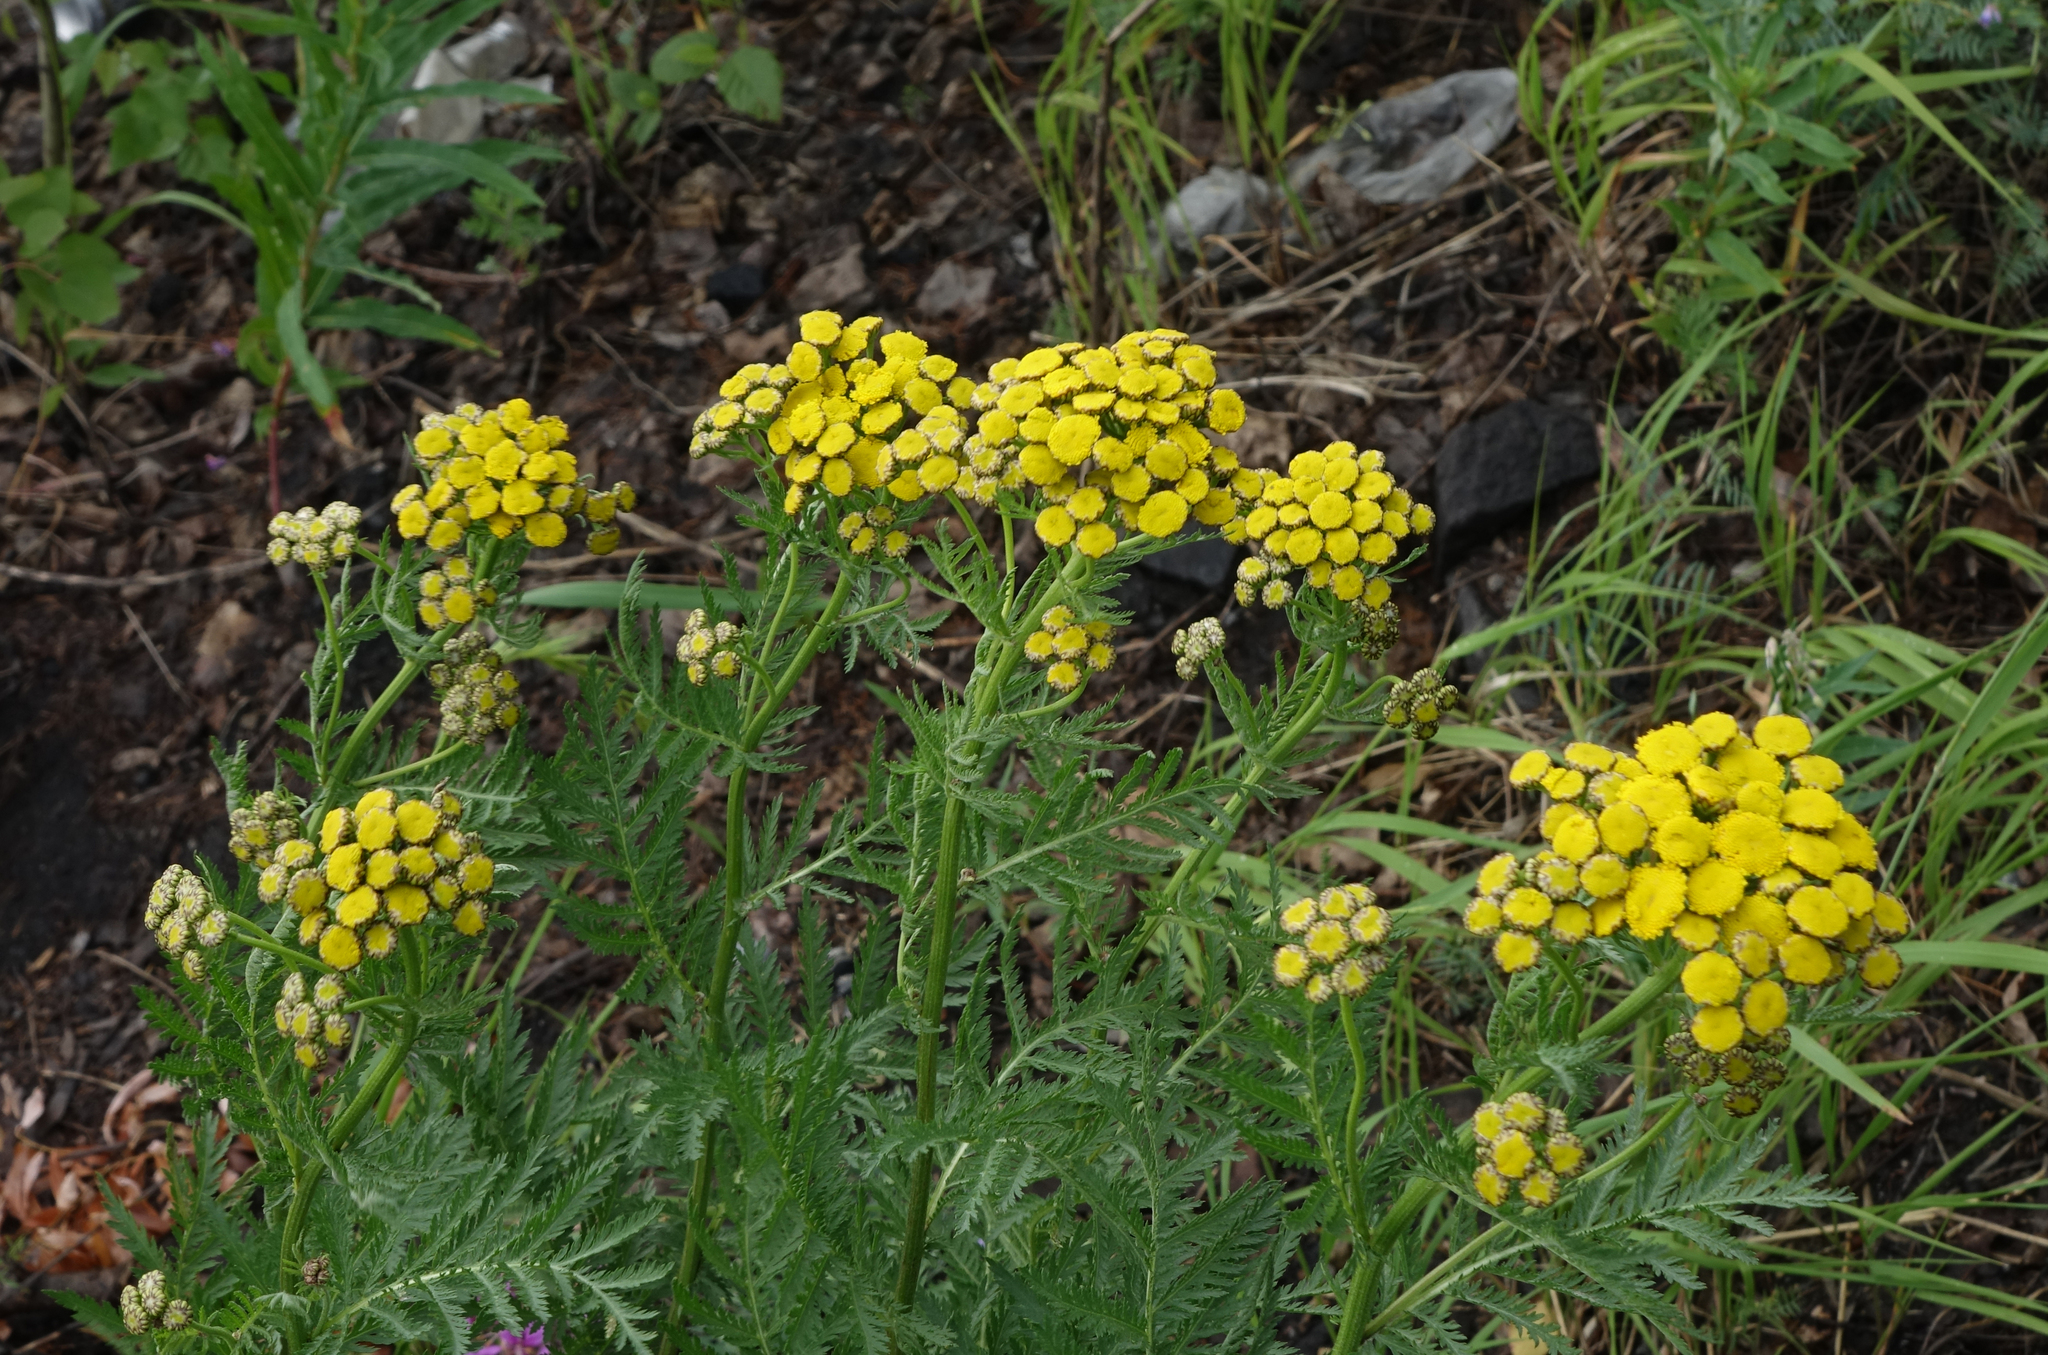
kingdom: Plantae
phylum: Tracheophyta
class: Magnoliopsida
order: Asterales
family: Asteraceae
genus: Tanacetum
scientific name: Tanacetum vulgare
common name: Common tansy
